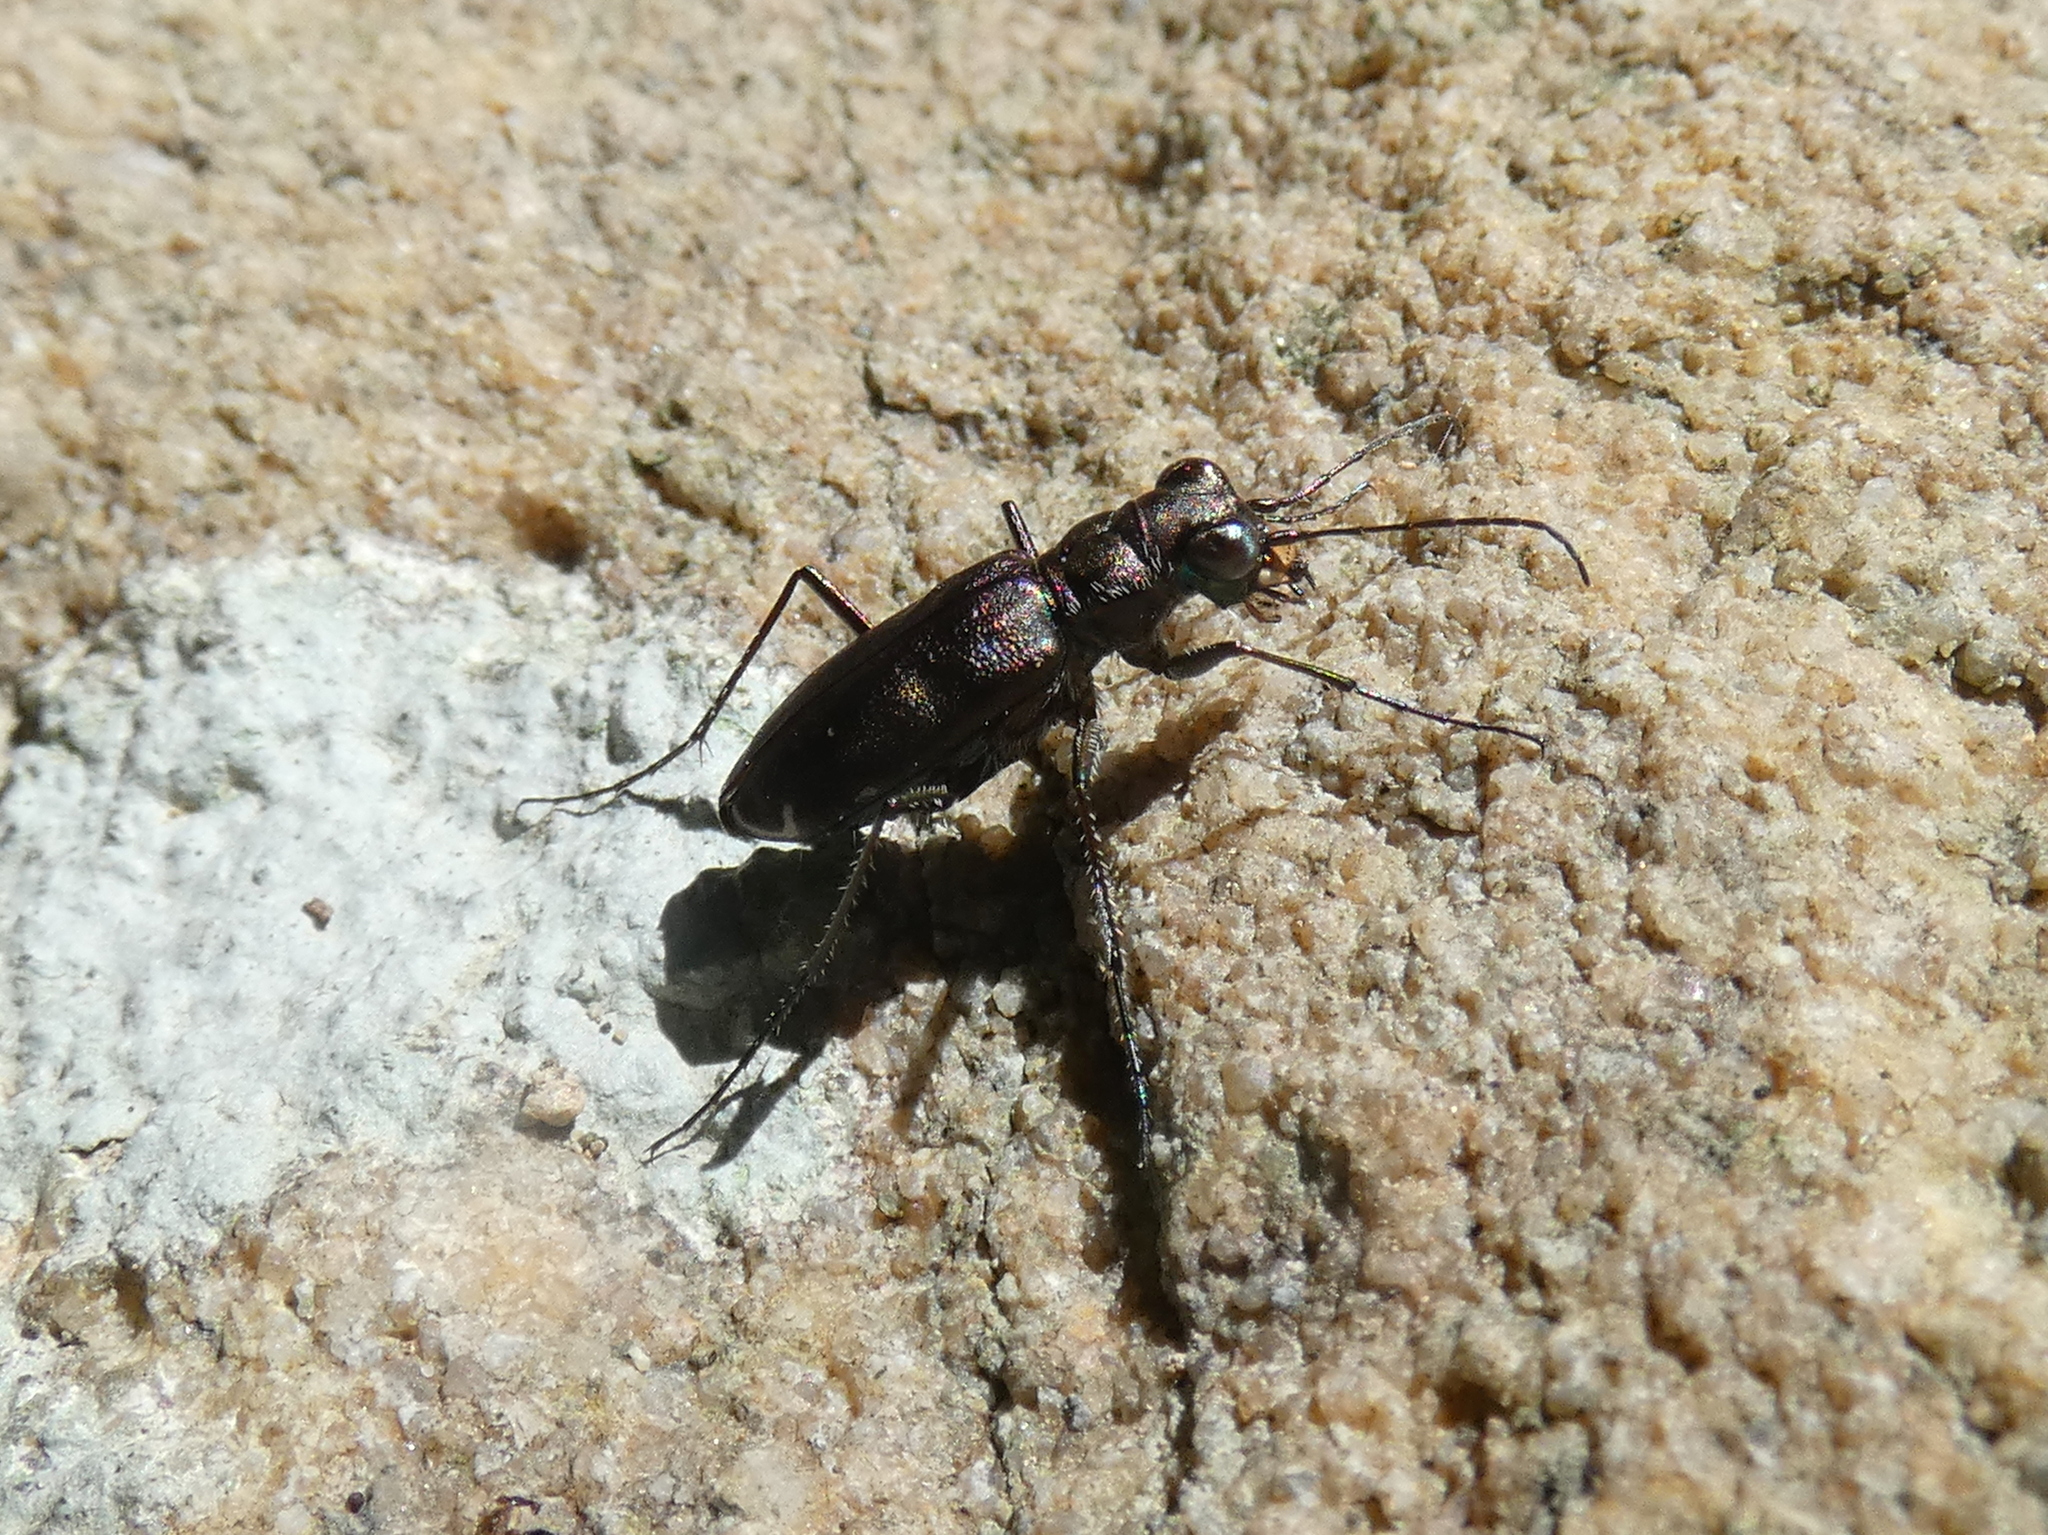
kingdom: Animalia
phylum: Arthropoda
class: Insecta
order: Coleoptera
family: Carabidae
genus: Cicindela
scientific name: Cicindela punctulata
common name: Punctured tiger beetle
